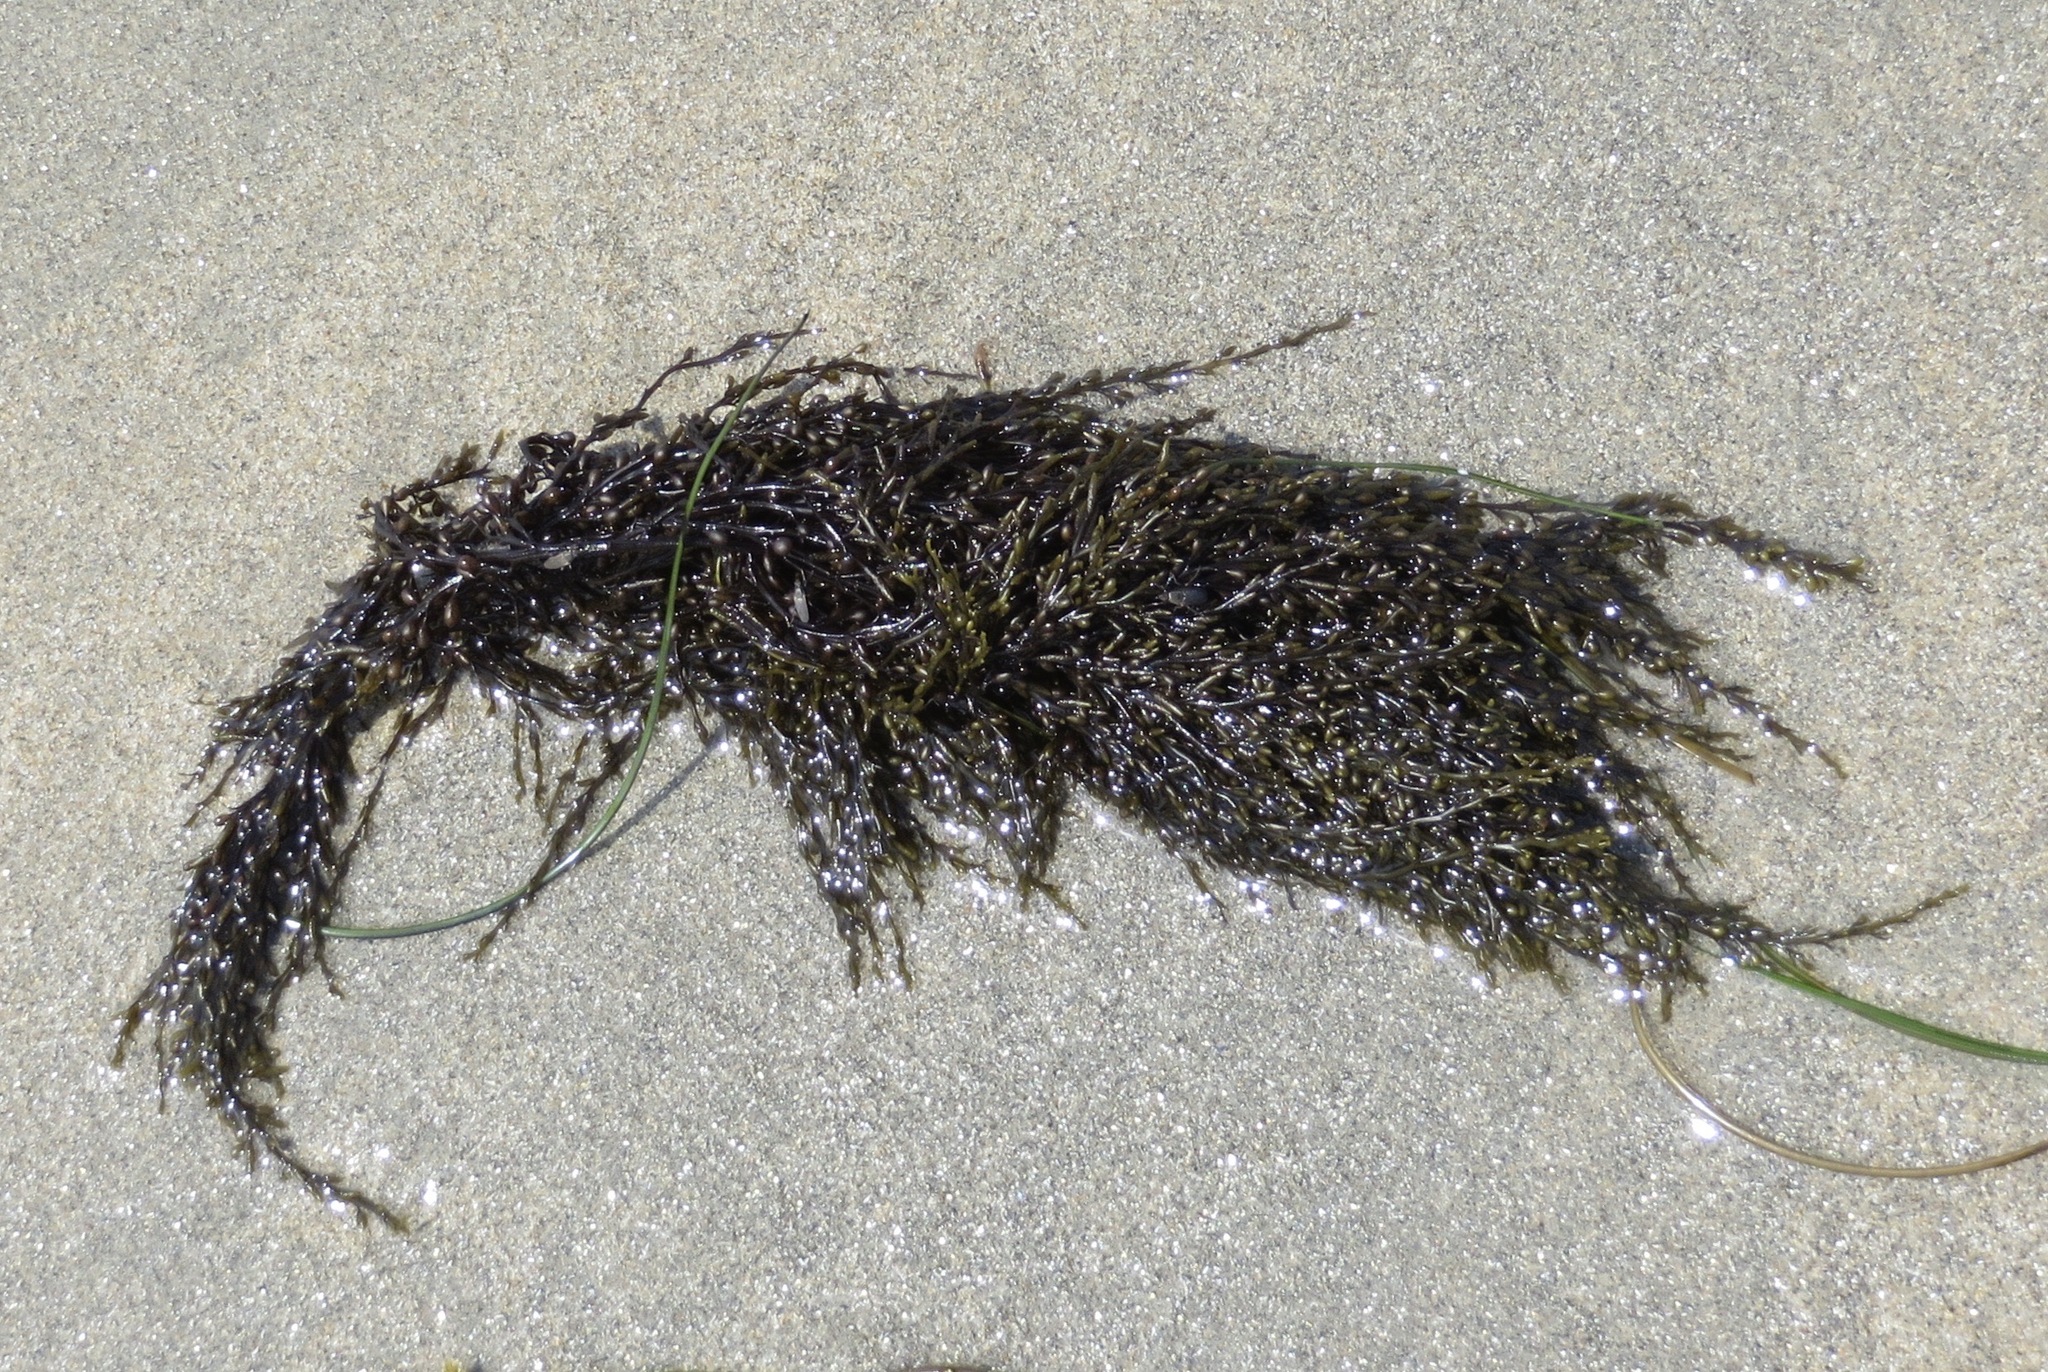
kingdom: Chromista
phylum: Ochrophyta
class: Phaeophyceae
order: Fucales
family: Sargassaceae
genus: Sargassum
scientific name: Sargassum muticum
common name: Japweed
